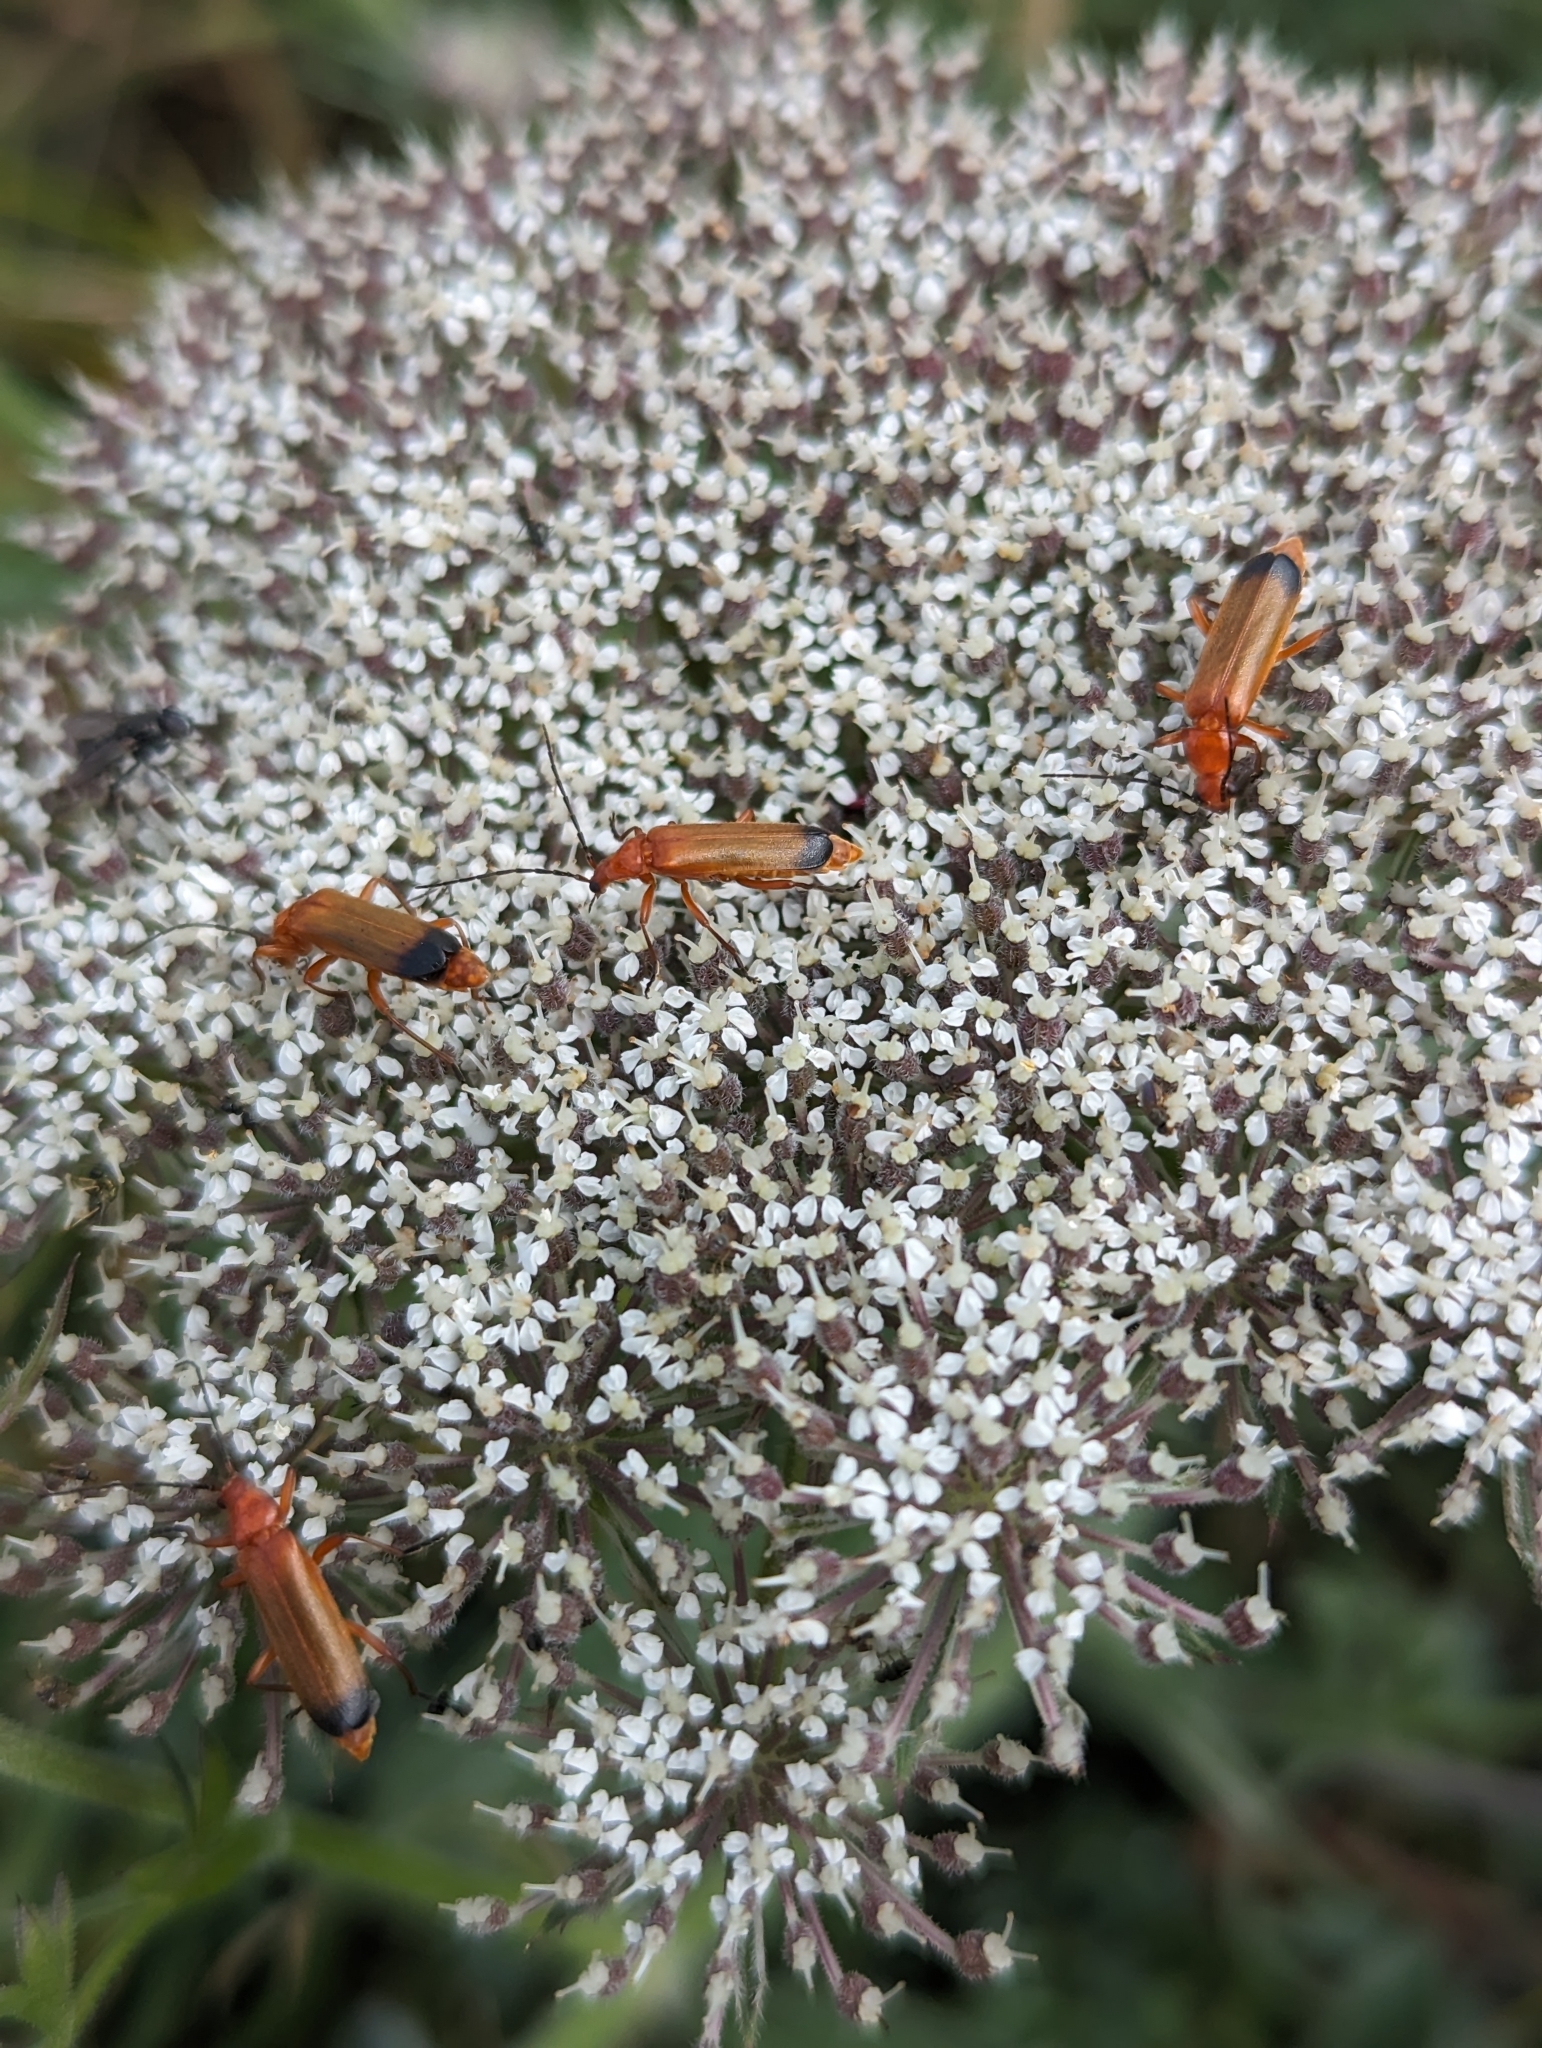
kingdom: Animalia
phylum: Arthropoda
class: Insecta
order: Coleoptera
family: Cantharidae
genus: Rhagonycha
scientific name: Rhagonycha fulva
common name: Common red soldier beetle
